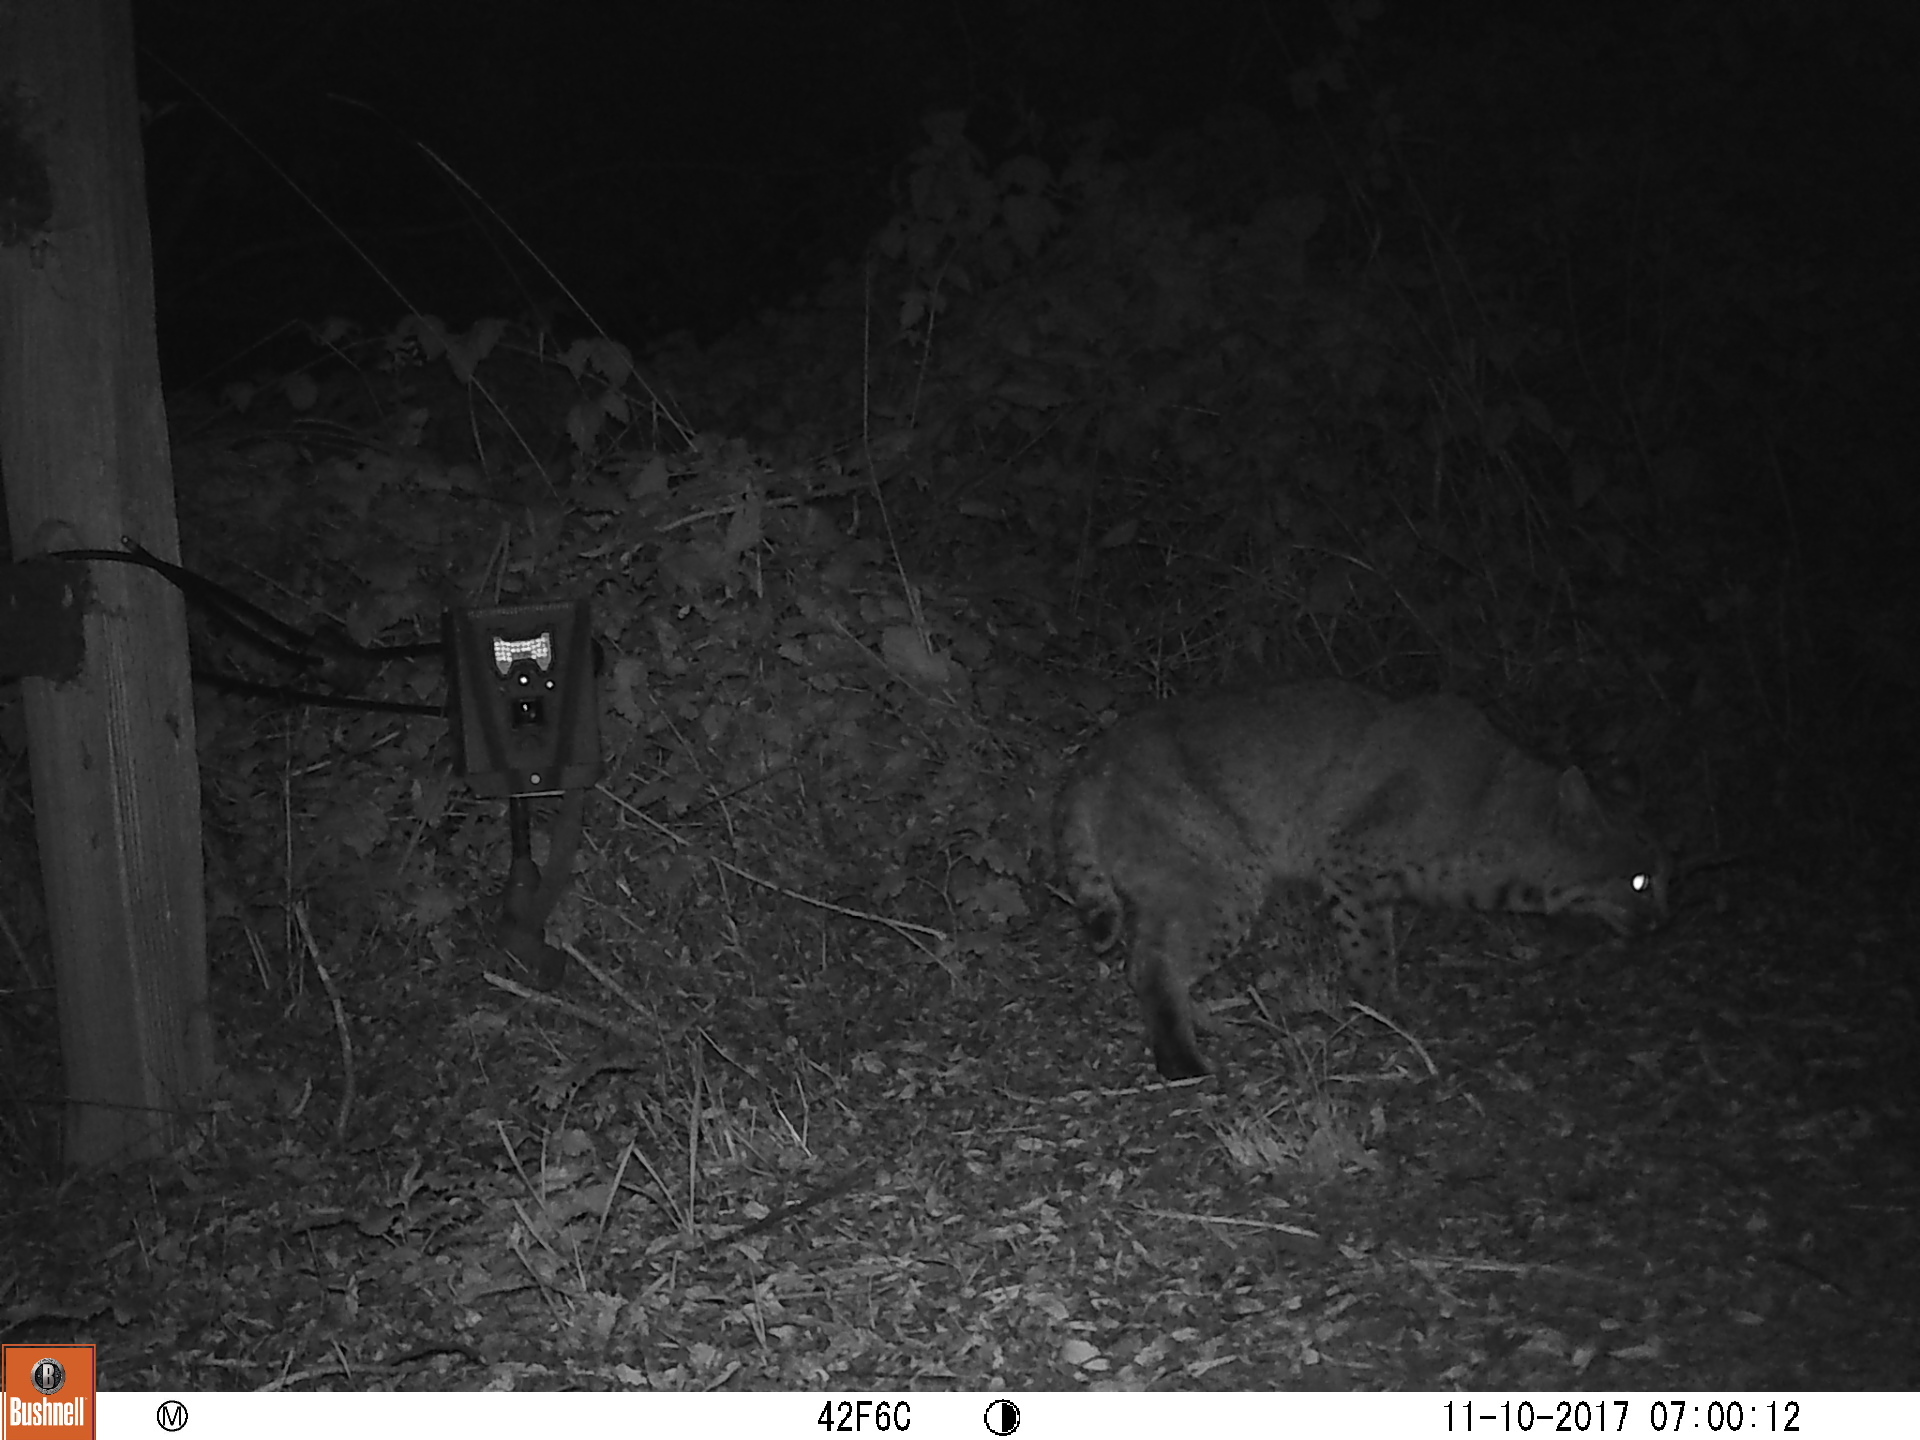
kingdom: Animalia
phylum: Chordata
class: Mammalia
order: Carnivora
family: Felidae
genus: Lynx
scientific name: Lynx rufus
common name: Bobcat
